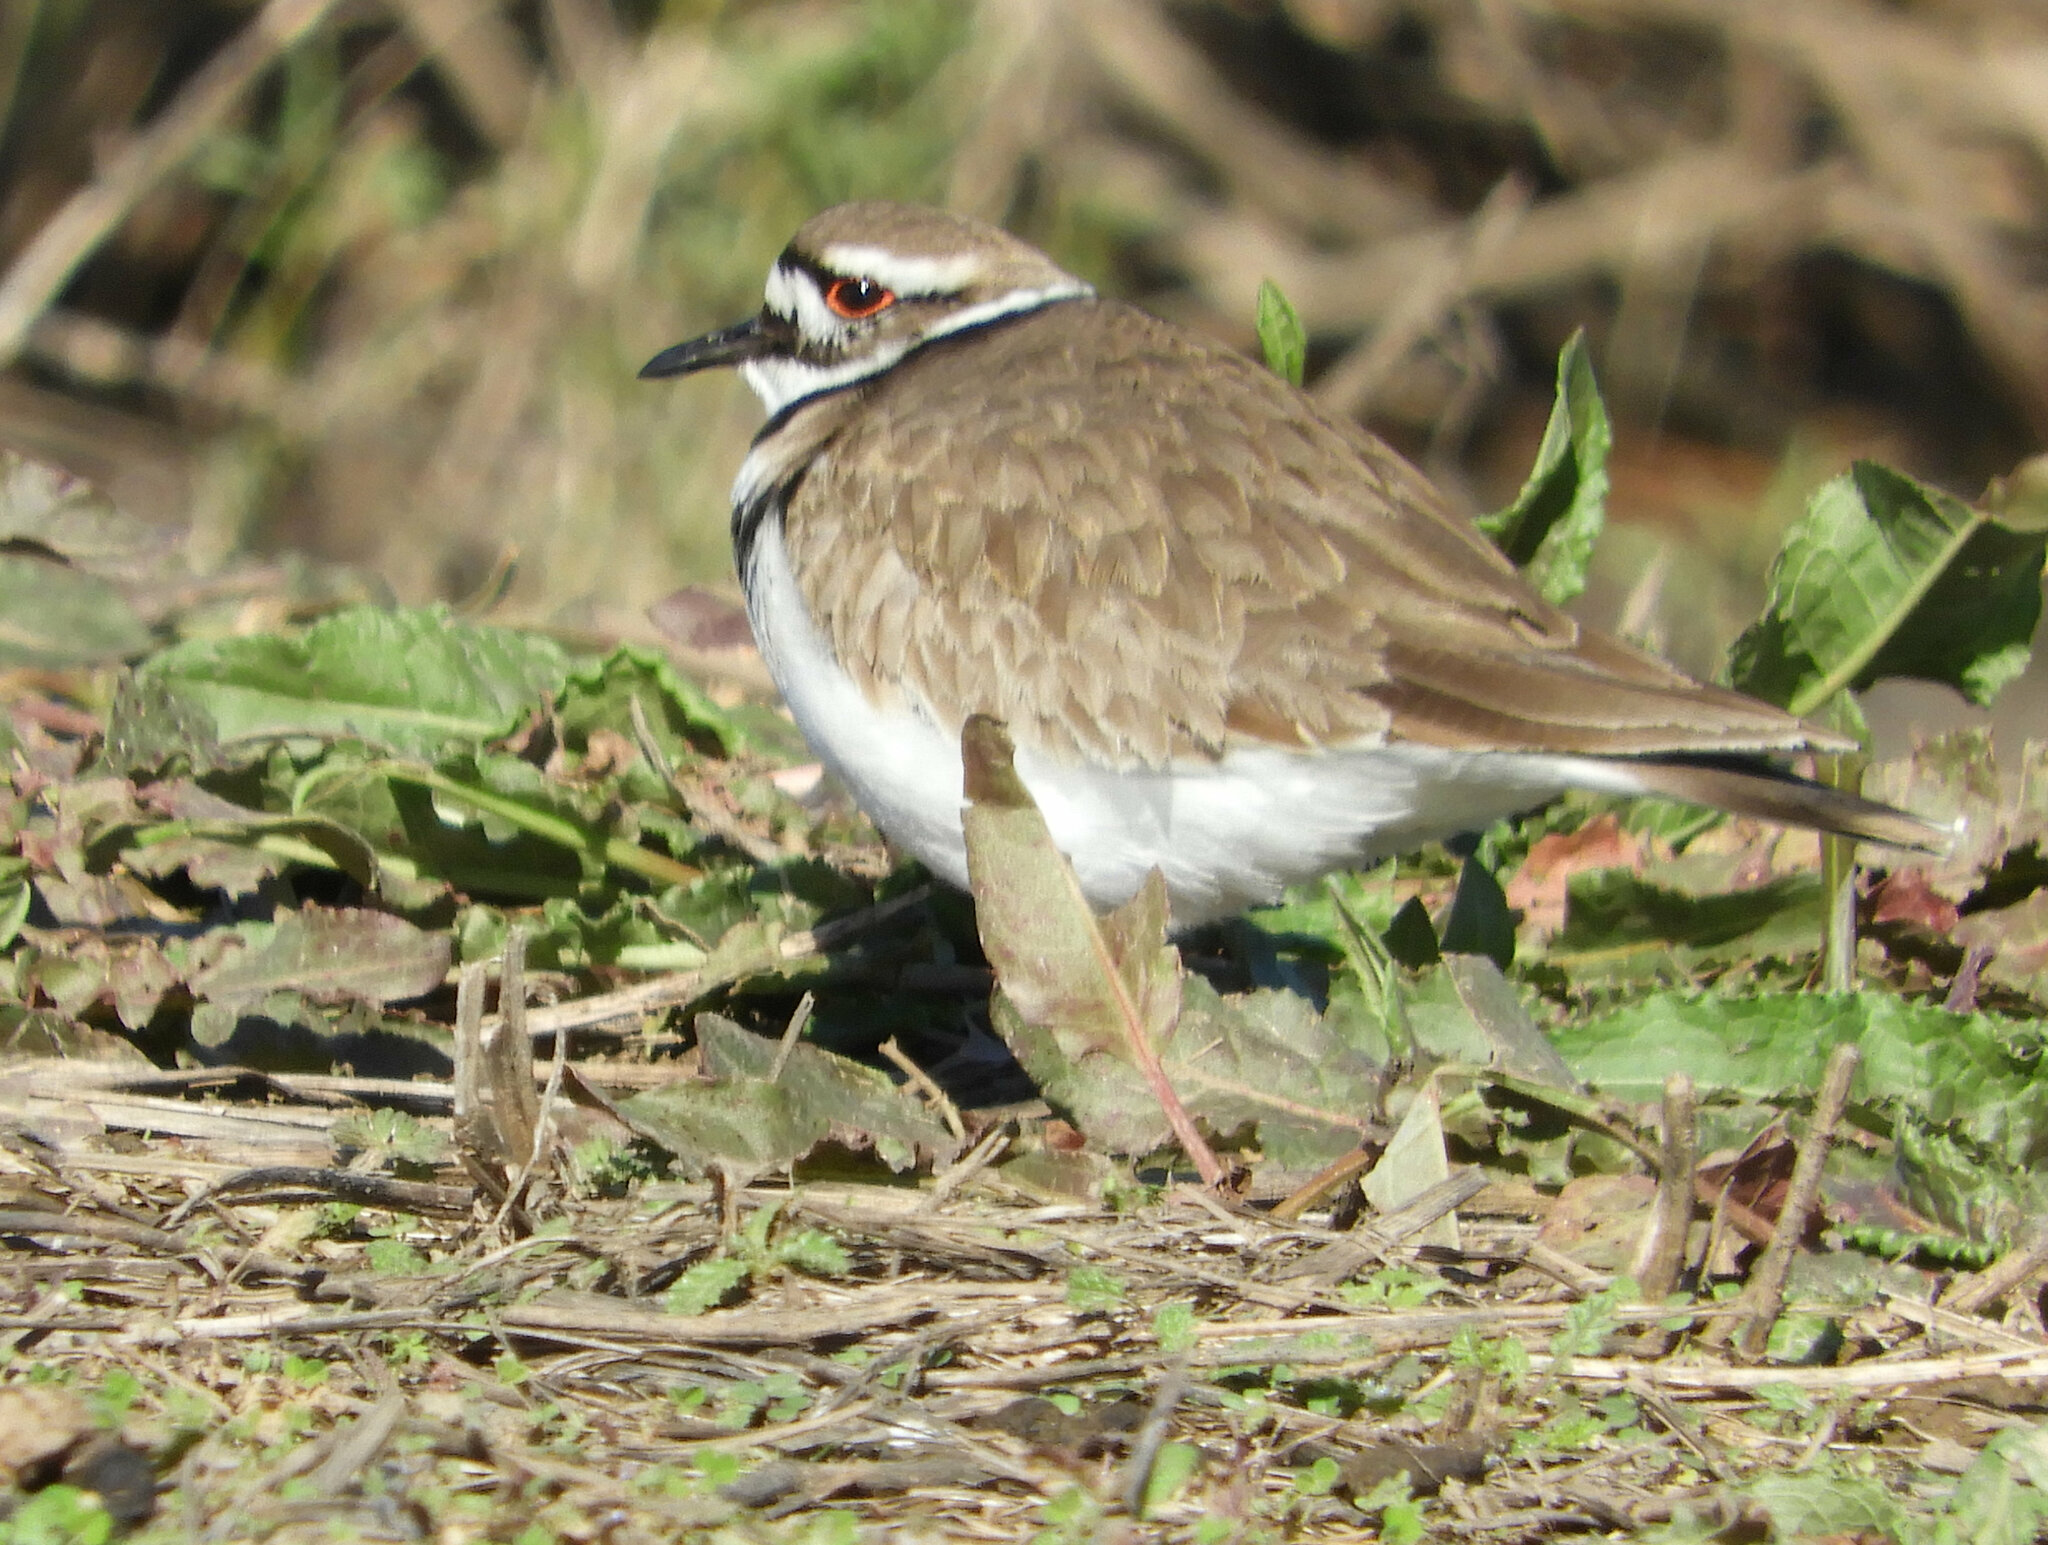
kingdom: Animalia
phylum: Chordata
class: Aves
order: Charadriiformes
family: Charadriidae
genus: Charadrius
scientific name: Charadrius vociferus
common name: Killdeer
